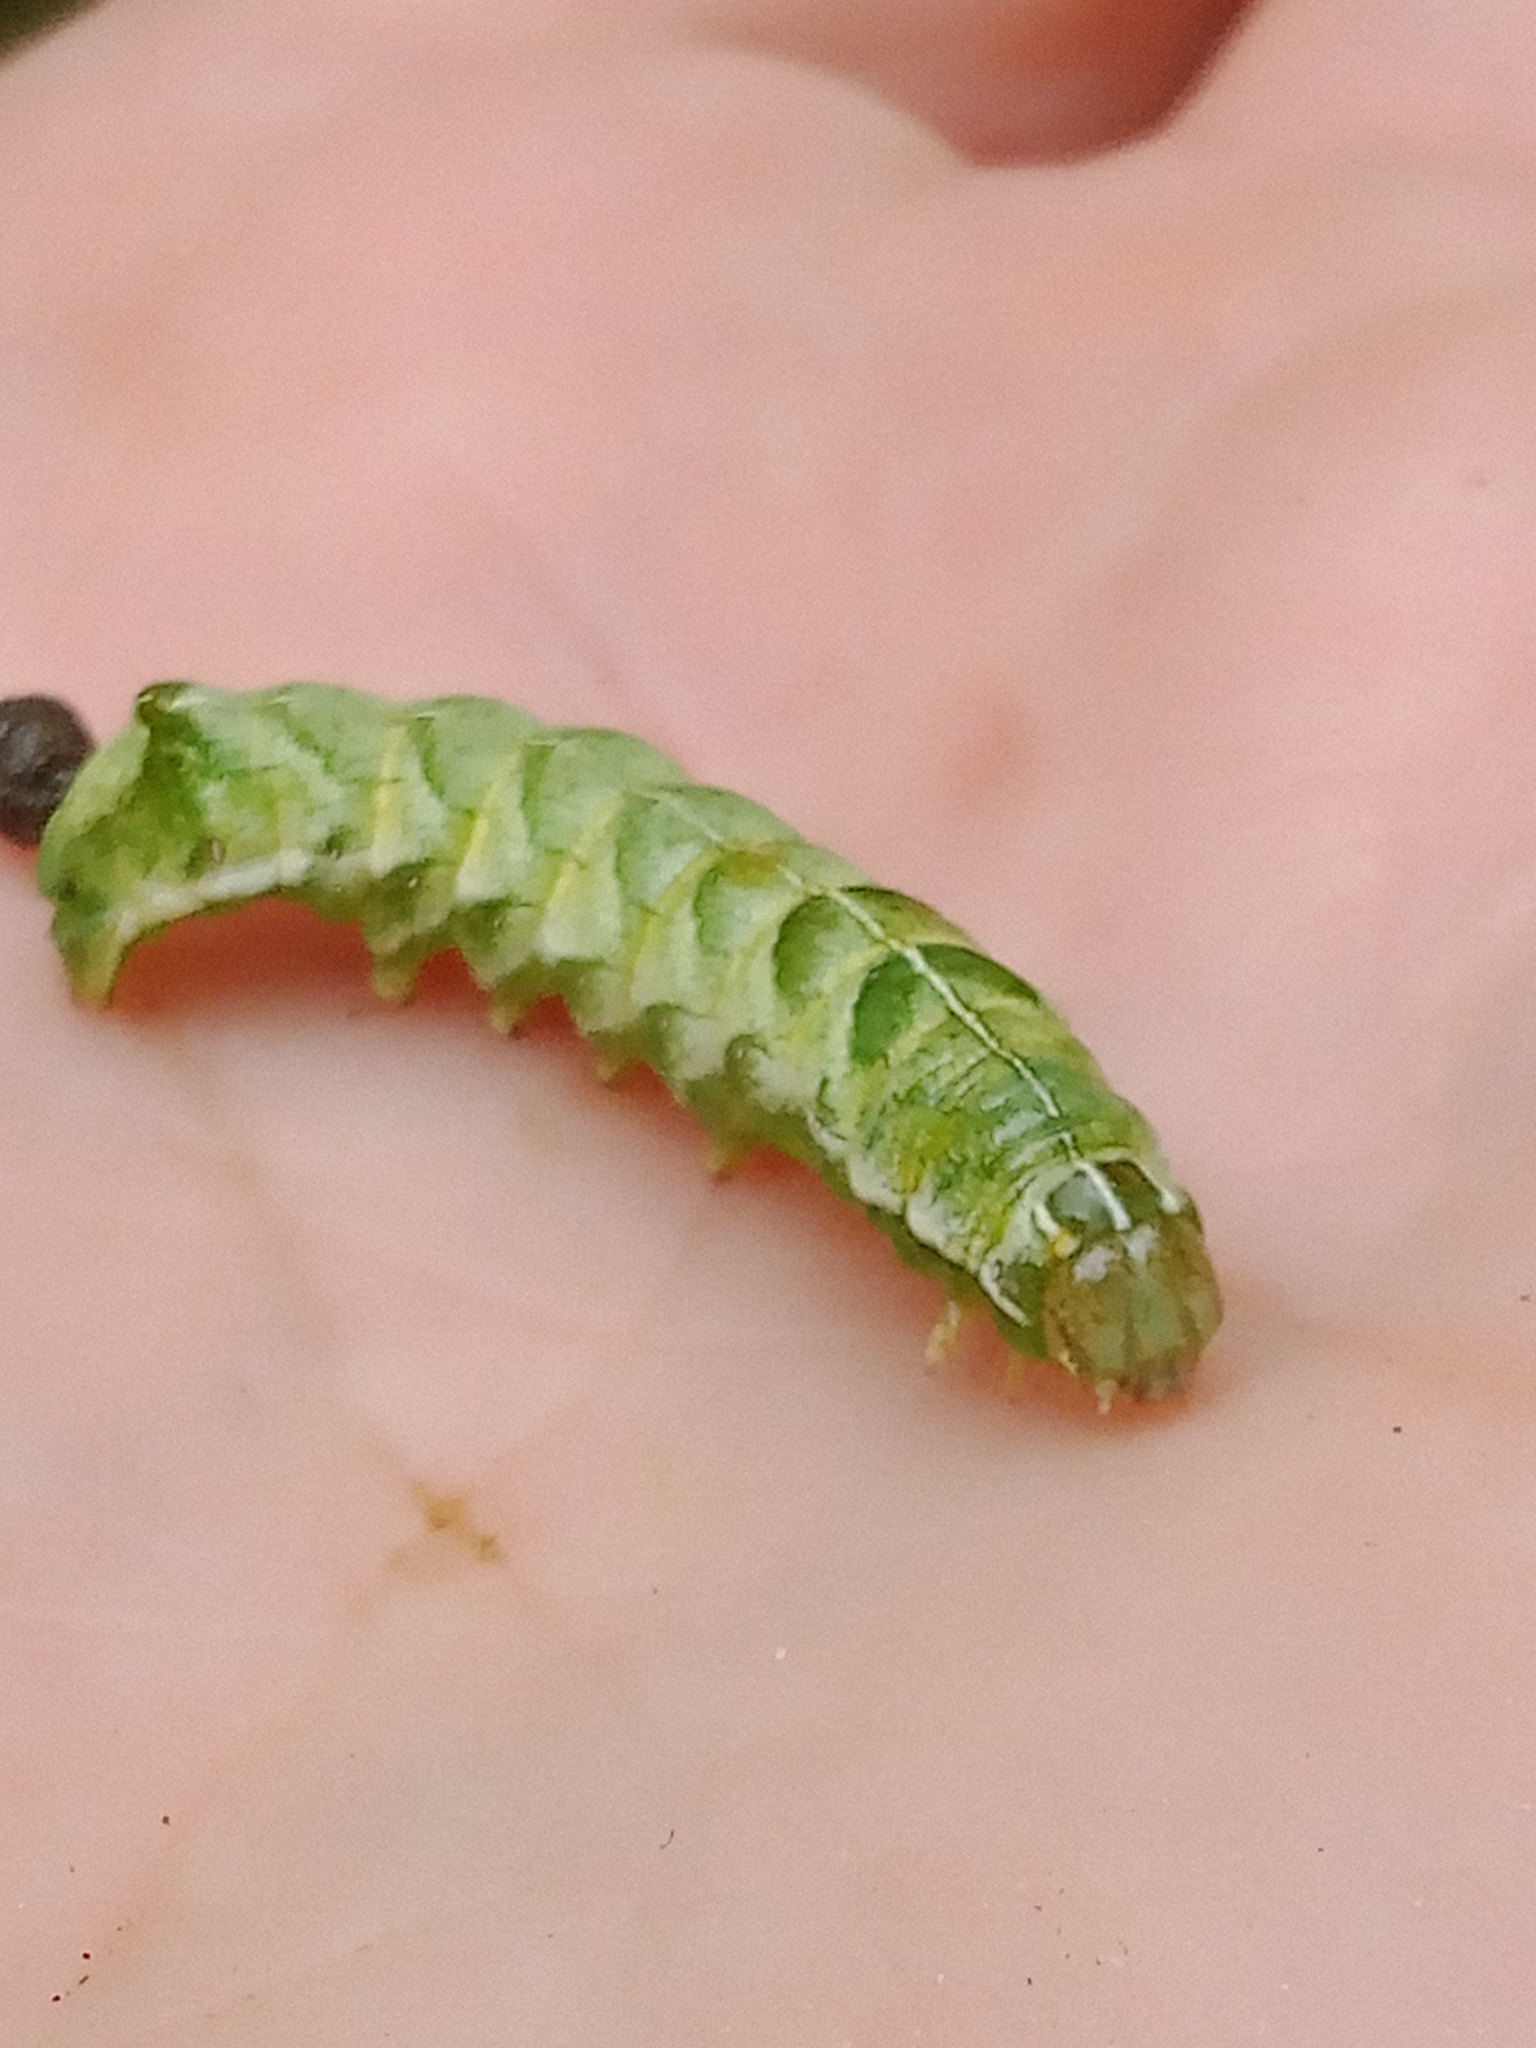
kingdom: Animalia
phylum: Arthropoda
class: Insecta
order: Lepidoptera
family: Noctuidae
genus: Melanchra
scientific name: Melanchra persicariae
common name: Dot moth
